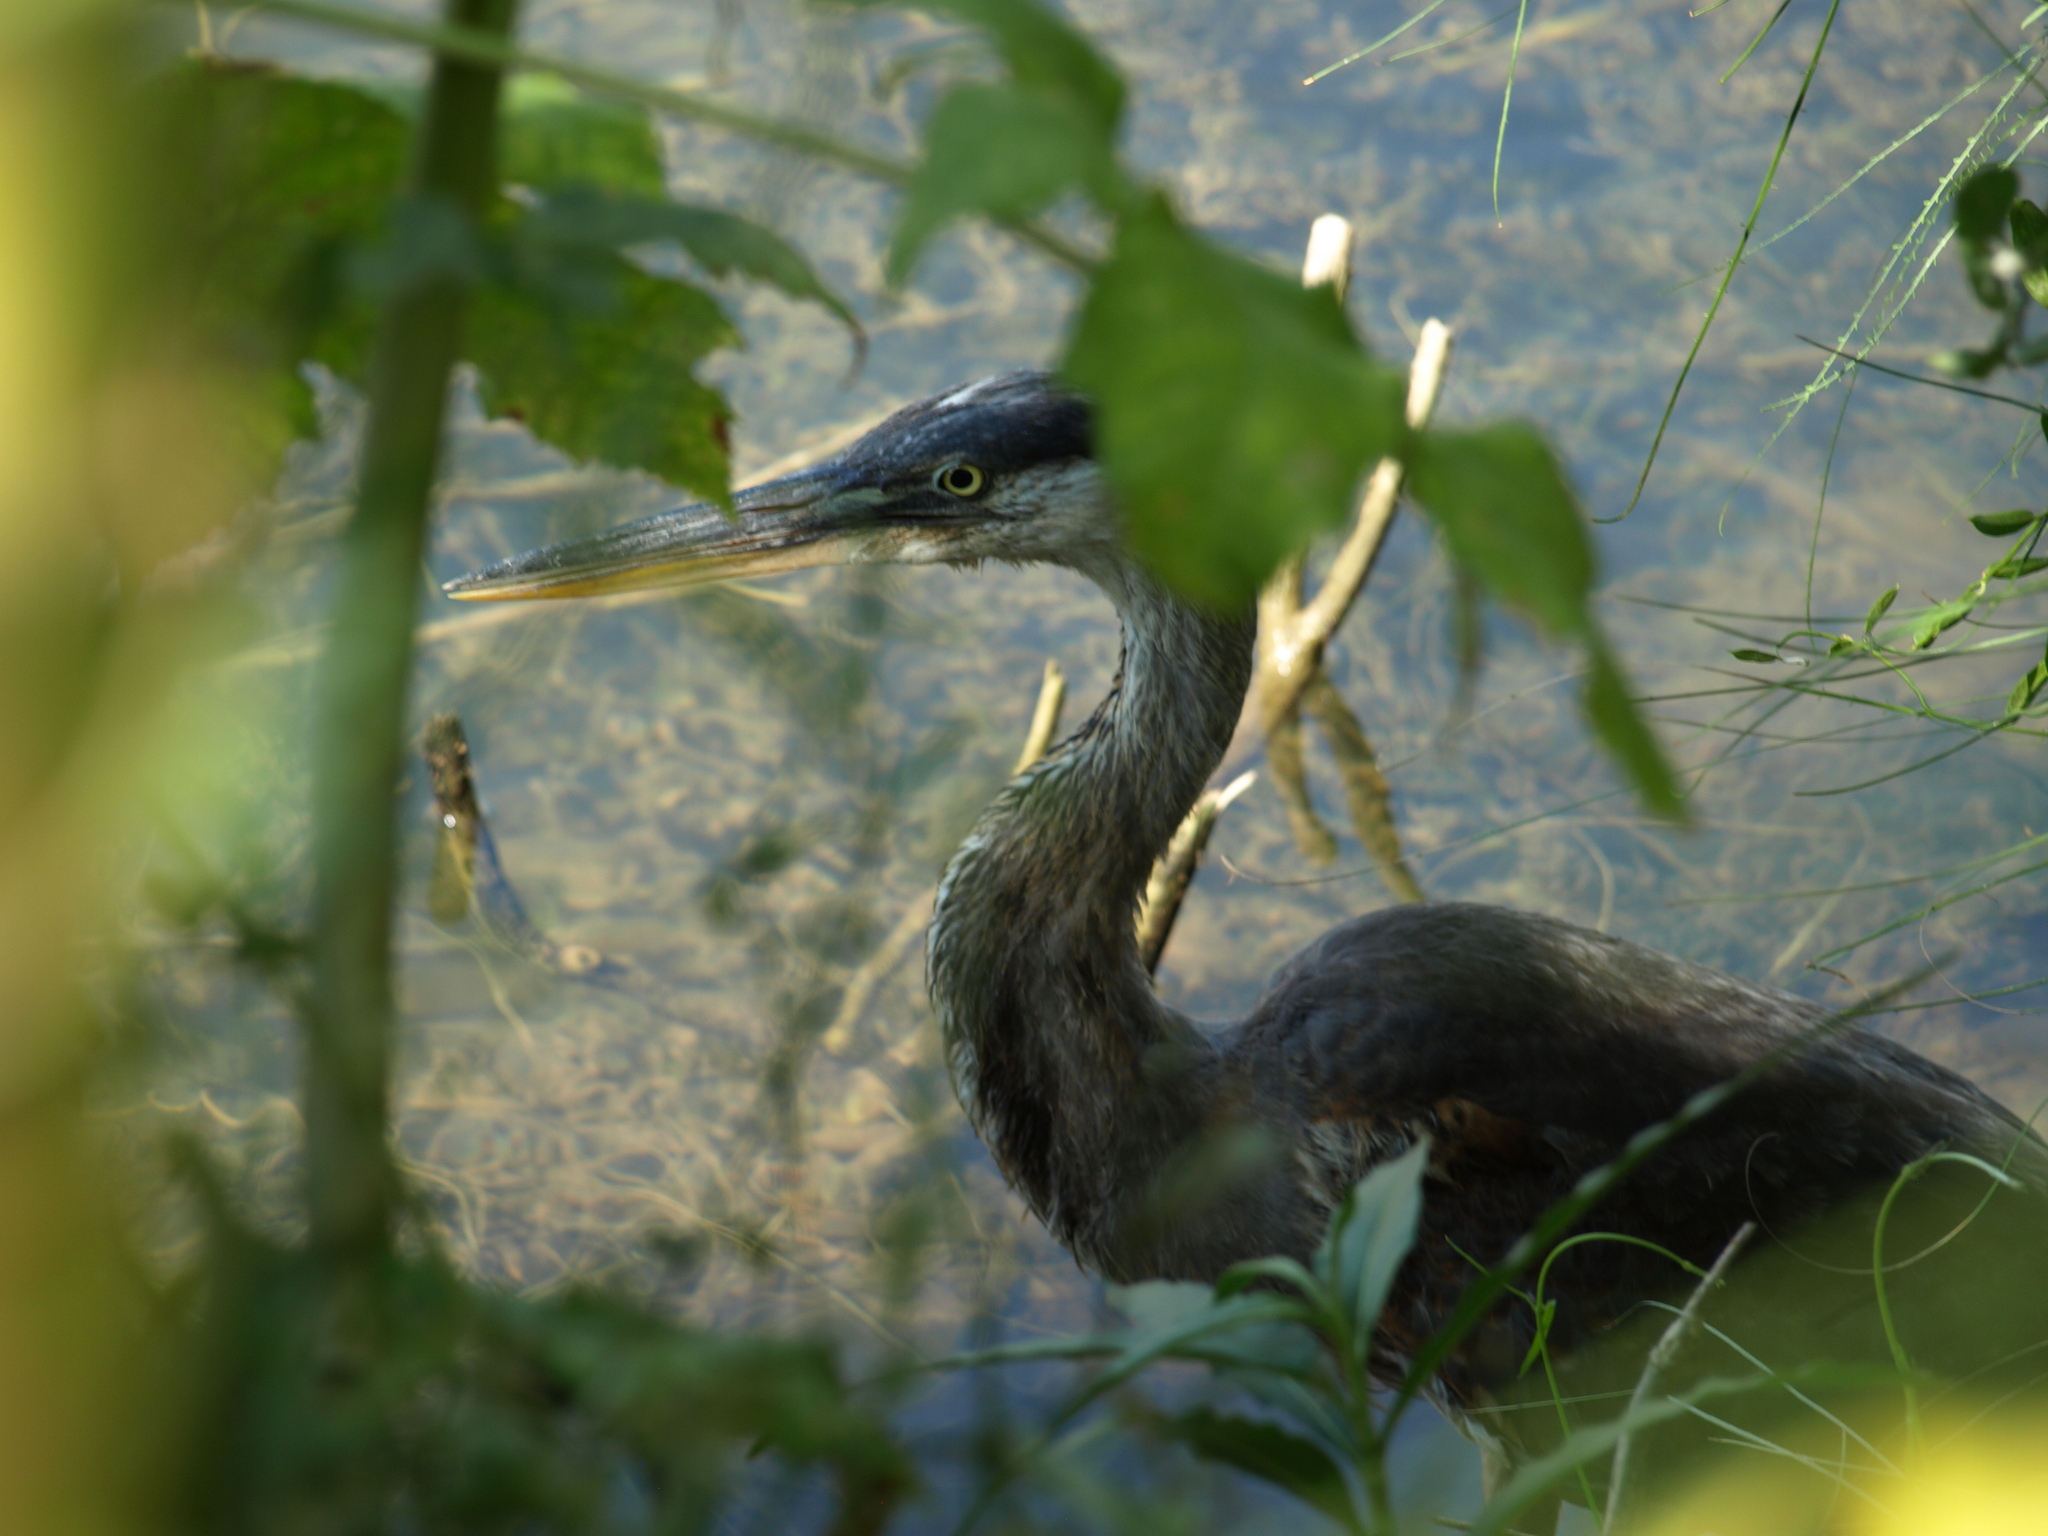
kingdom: Animalia
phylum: Chordata
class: Aves
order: Pelecaniformes
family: Ardeidae
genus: Ardea
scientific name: Ardea herodias
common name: Great blue heron
